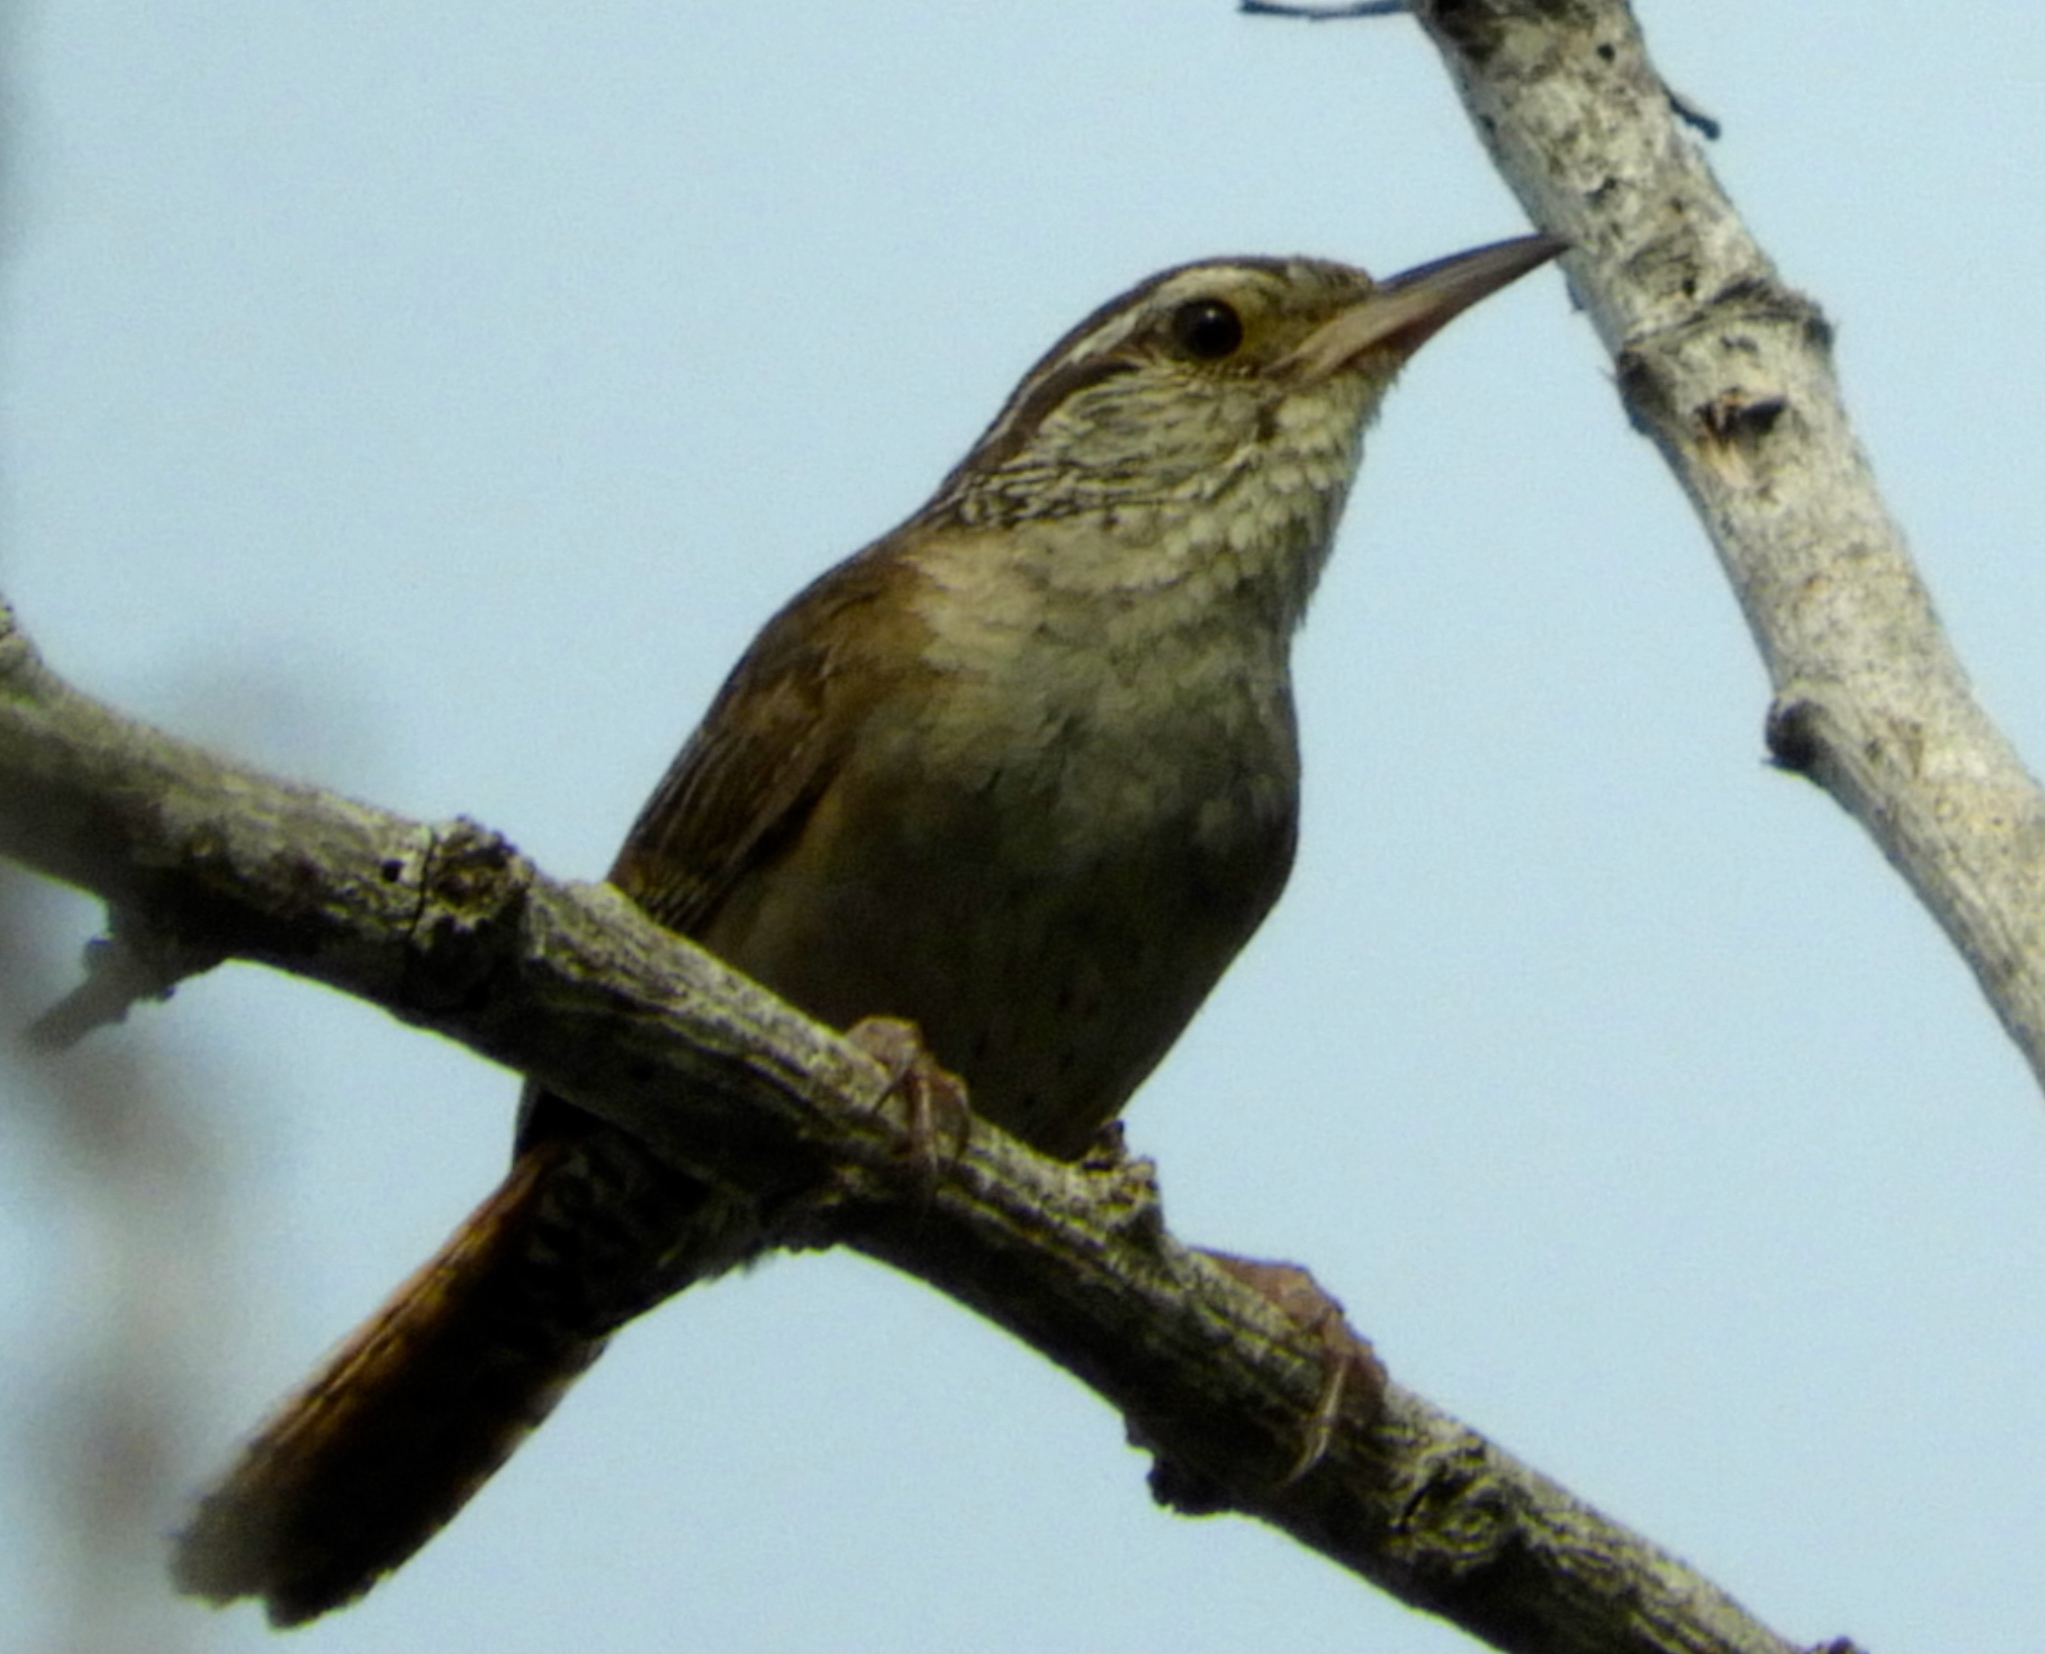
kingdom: Animalia
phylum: Chordata
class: Aves
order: Passeriformes
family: Troglodytidae
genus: Thryophilus
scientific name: Thryophilus sinaloa
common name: Sinaloa wren
